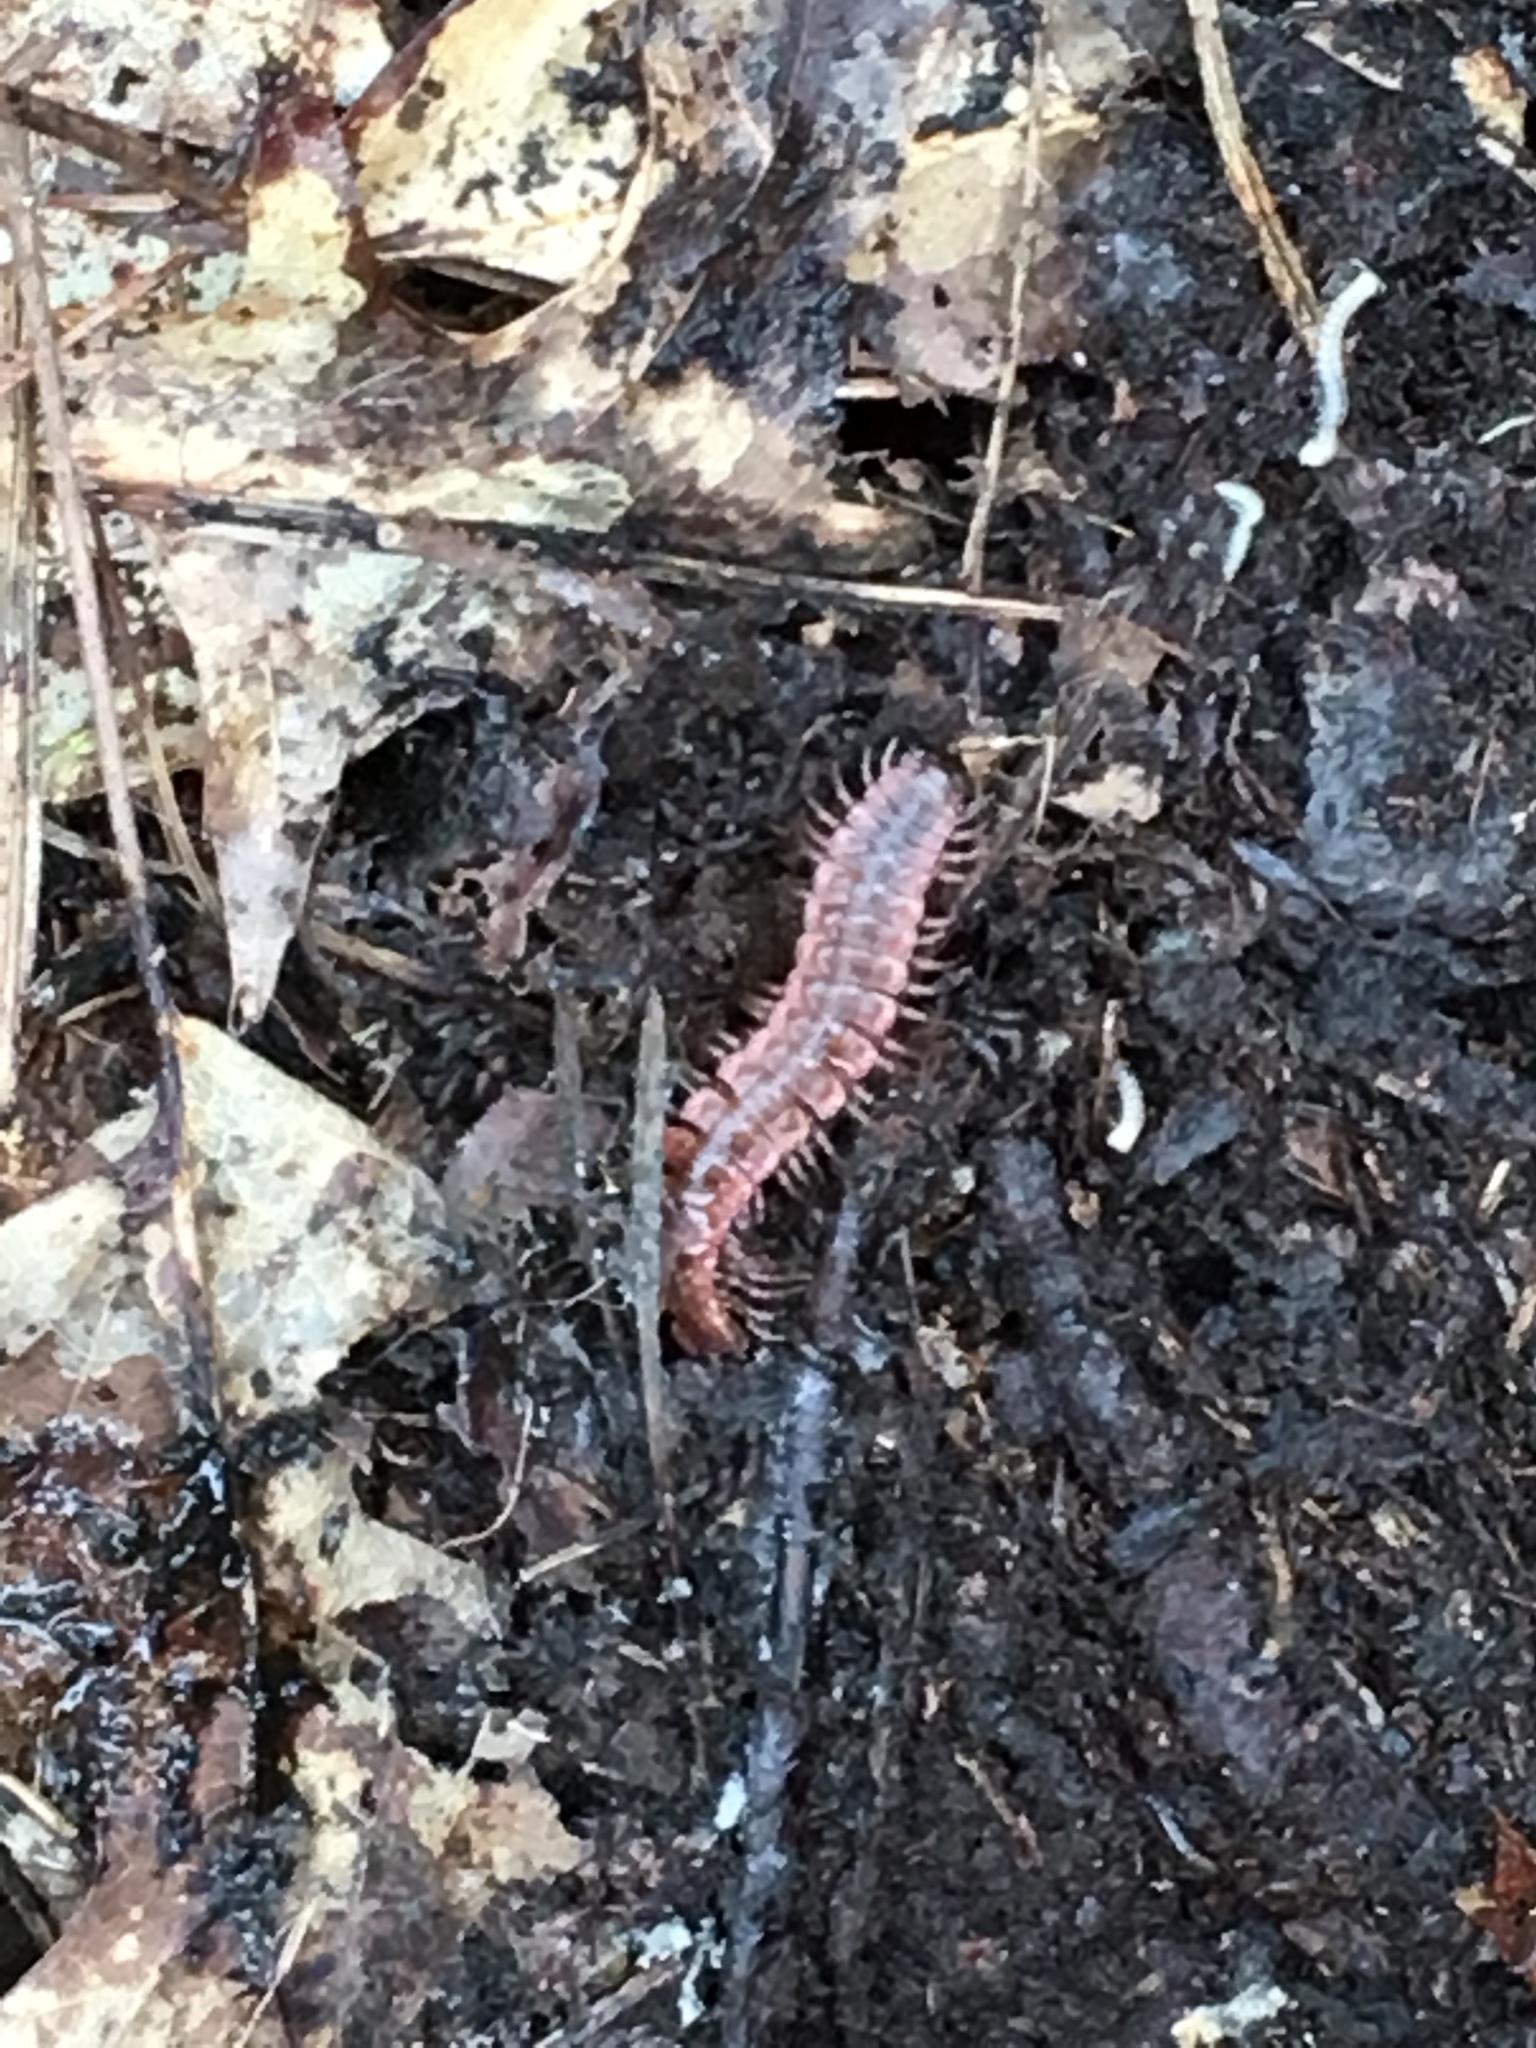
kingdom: Animalia
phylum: Arthropoda
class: Diplopoda
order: Polydesmida
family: Polydesmidae
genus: Pseudopolydesmus
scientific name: Pseudopolydesmus canadensis
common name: Canadian flat-back millipede
